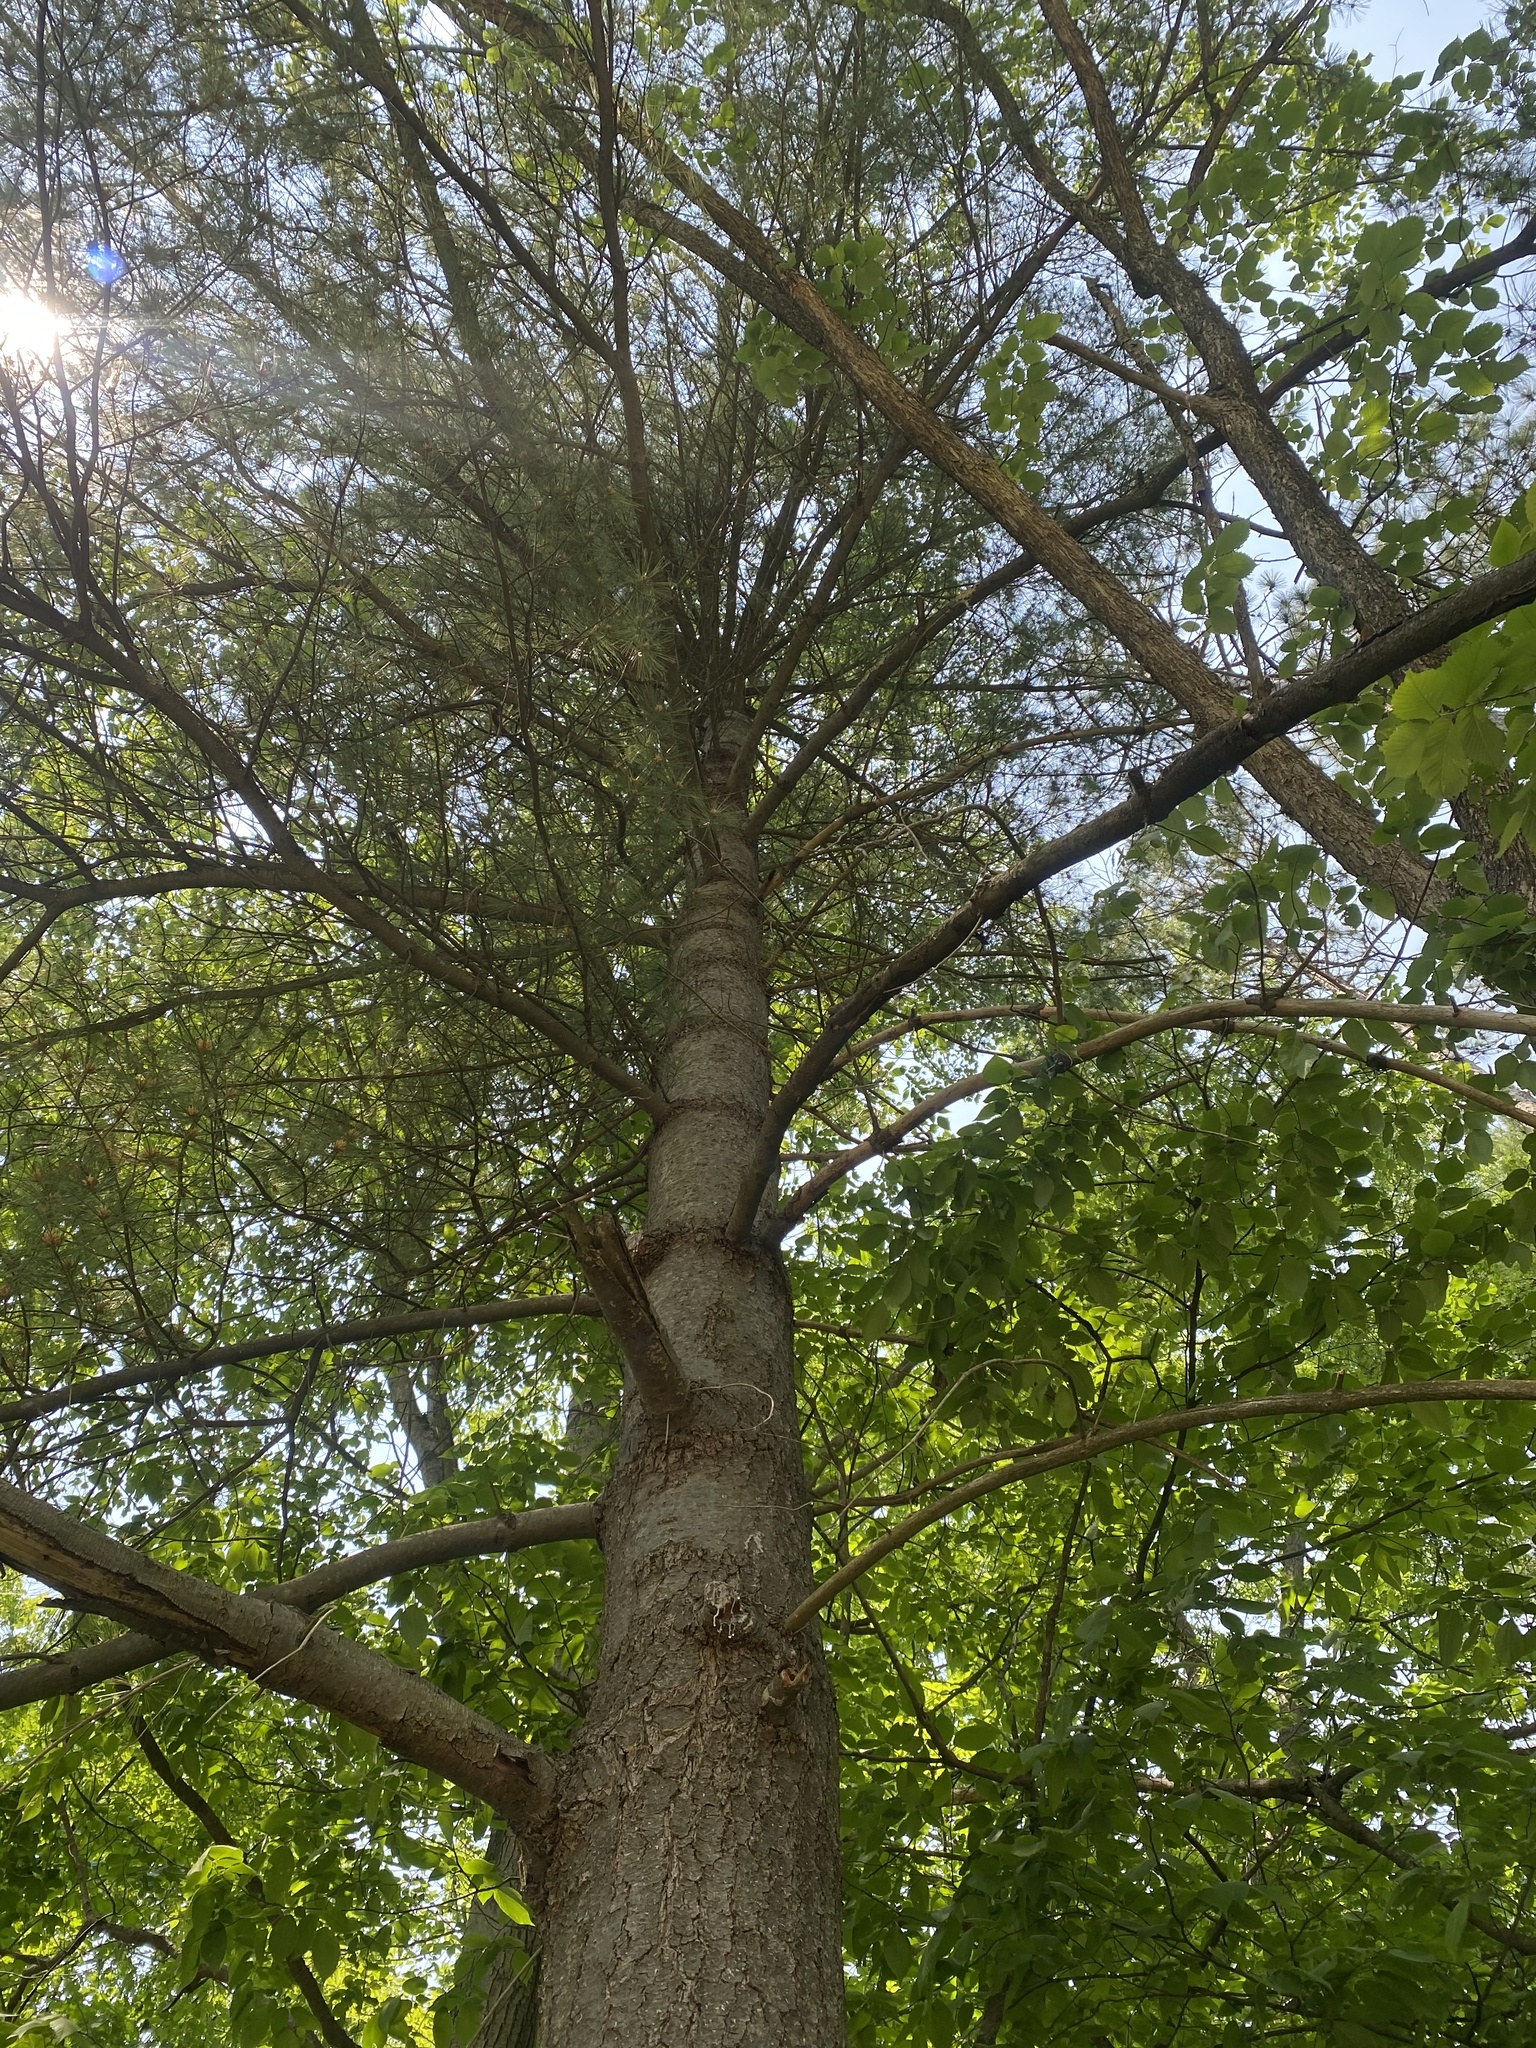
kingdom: Plantae
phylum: Tracheophyta
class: Pinopsida
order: Pinales
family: Pinaceae
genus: Pinus
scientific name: Pinus strobus
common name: Weymouth pine
